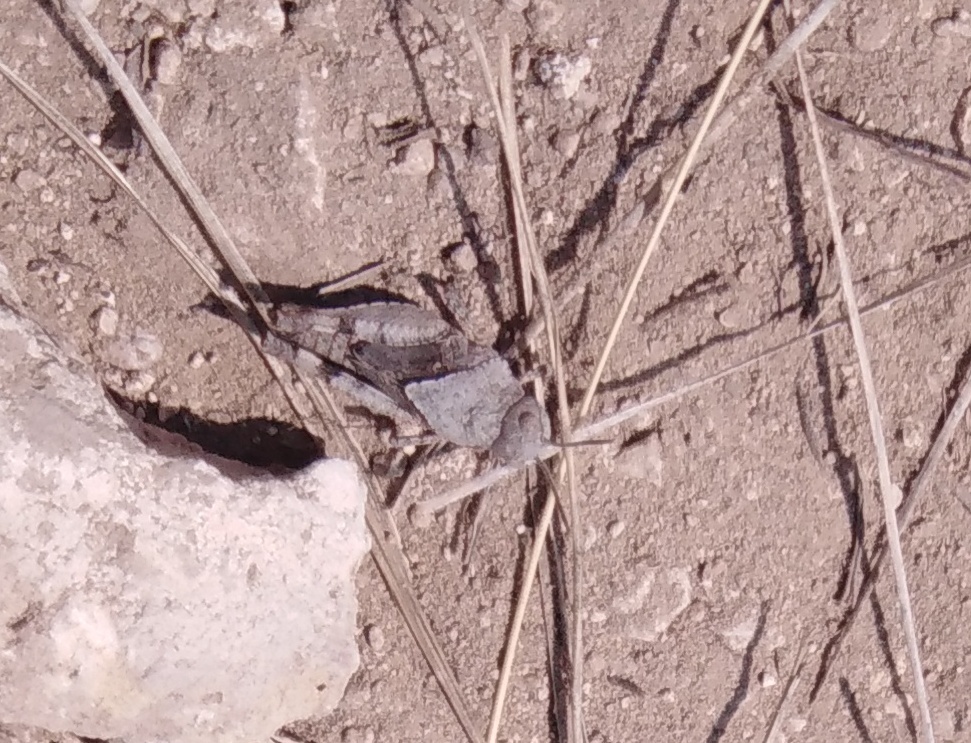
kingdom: Animalia
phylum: Arthropoda
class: Insecta
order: Orthoptera
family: Acrididae
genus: Oedipoda
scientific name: Oedipoda caerulescens
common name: Blue-winged grasshopper
